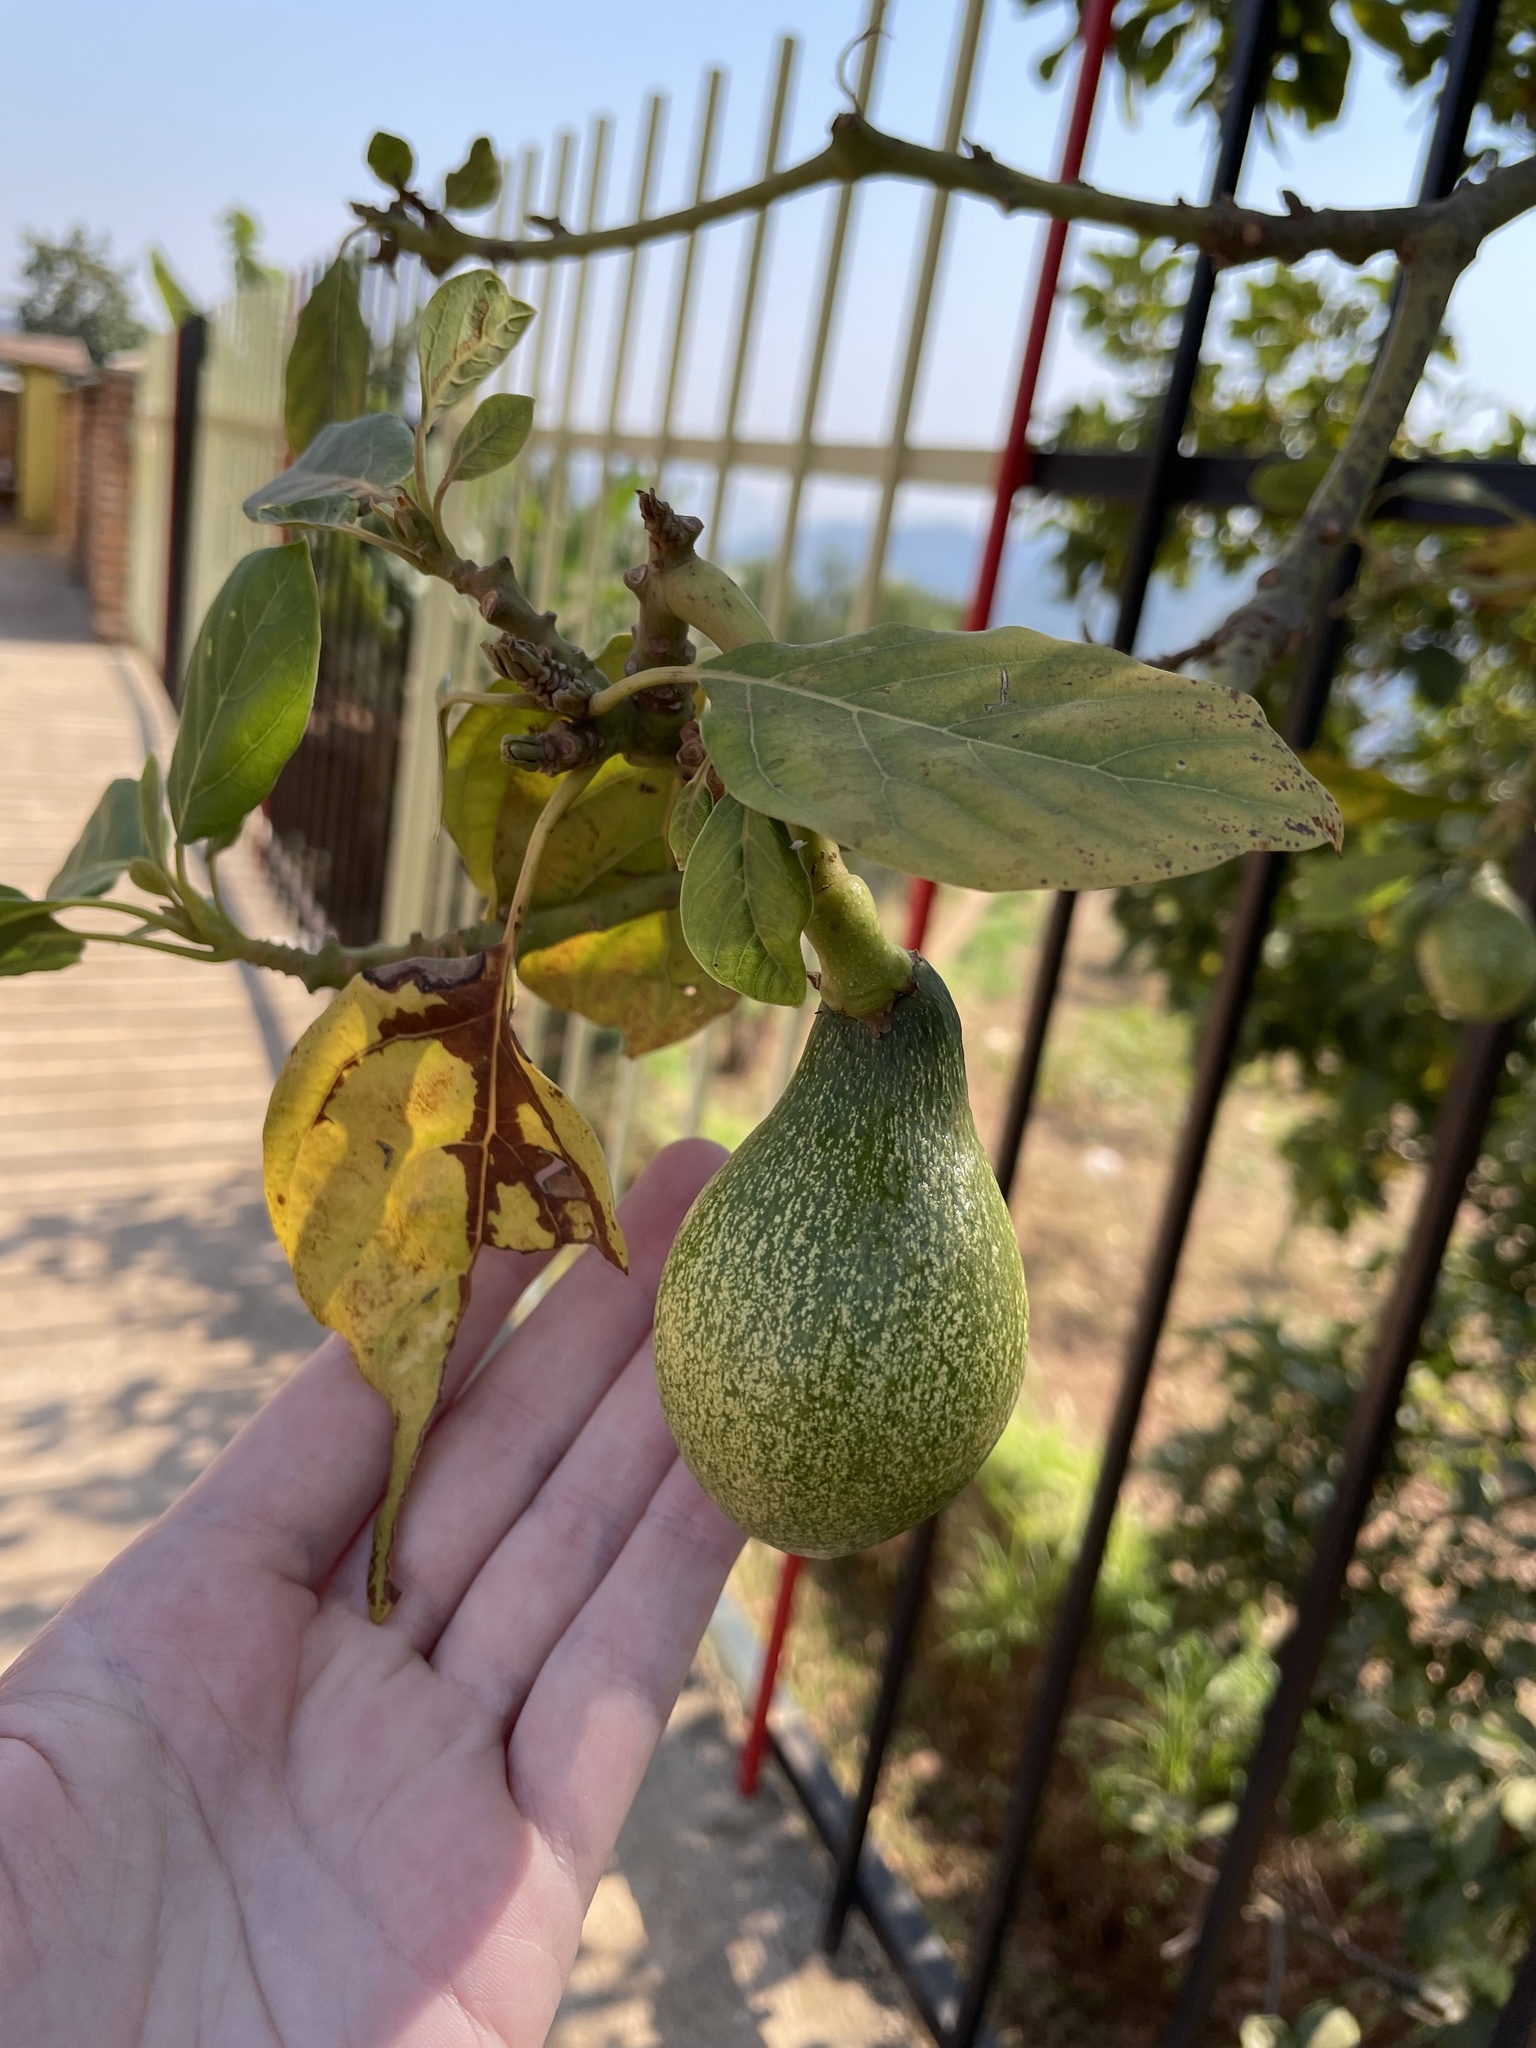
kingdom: Plantae
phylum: Tracheophyta
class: Magnoliopsida
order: Laurales
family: Lauraceae
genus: Persea
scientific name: Persea americana
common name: Avocado
